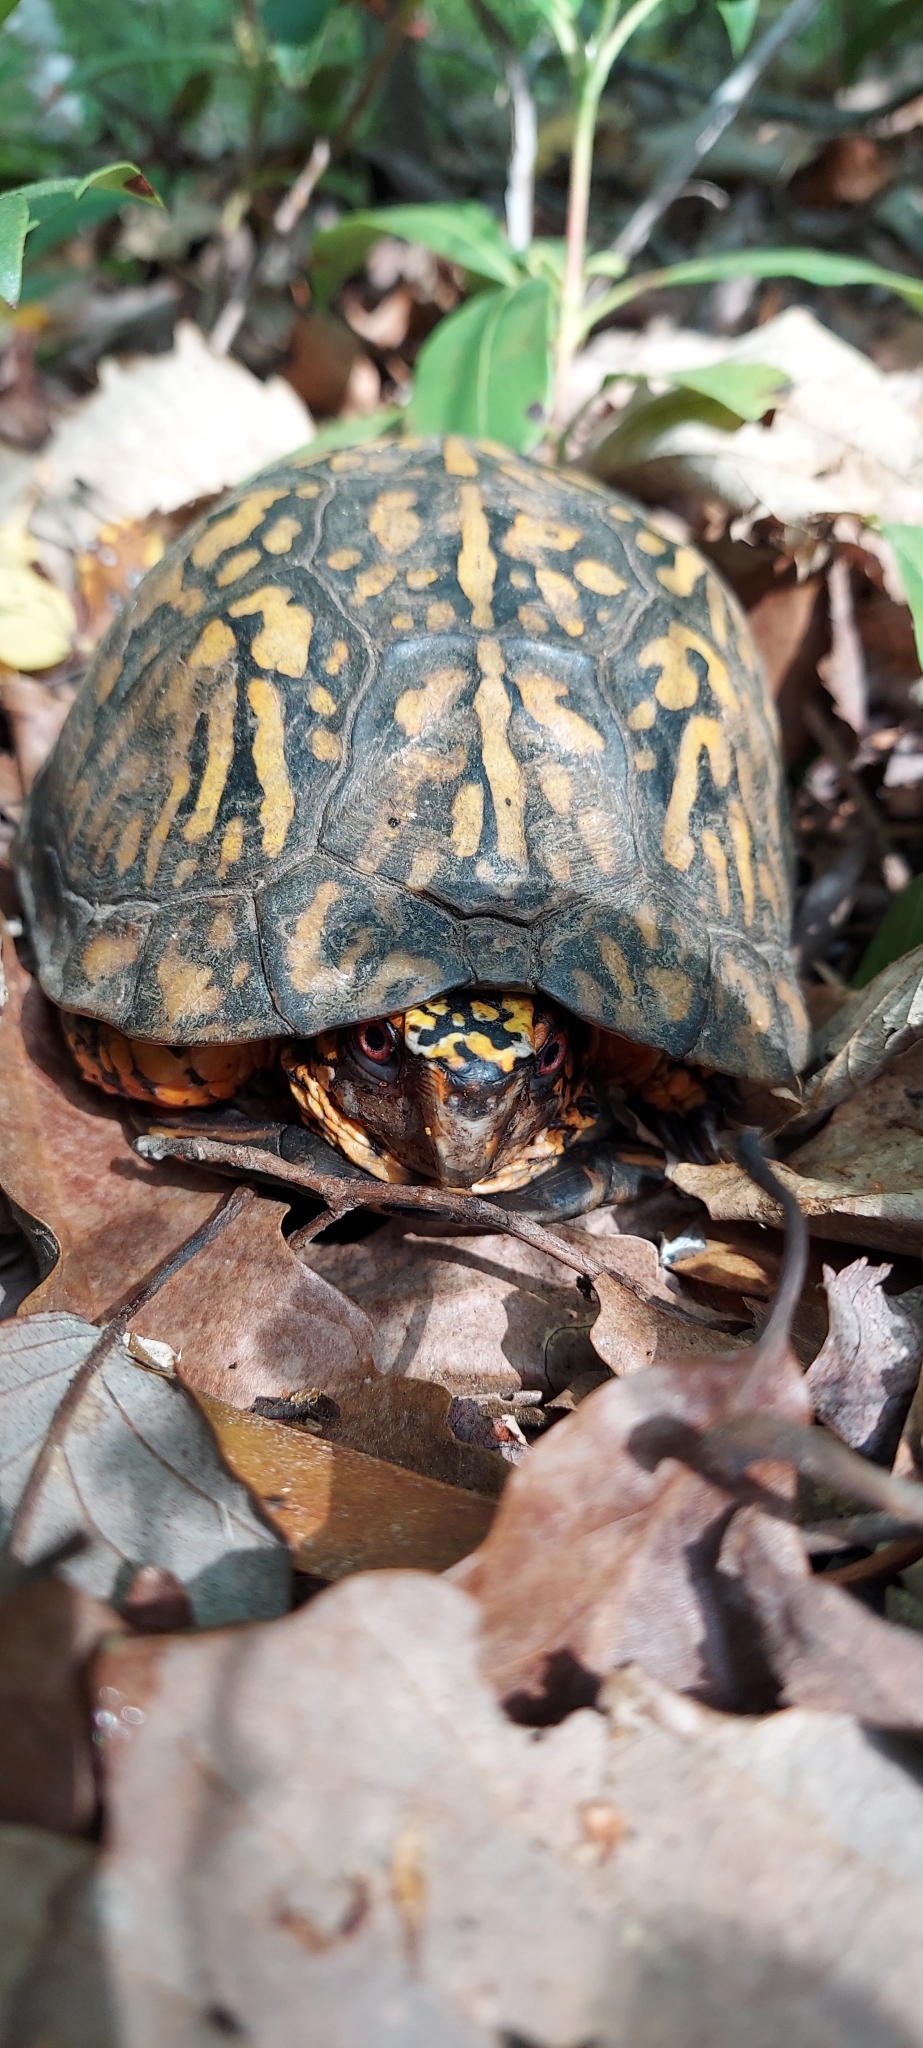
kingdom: Animalia
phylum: Chordata
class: Testudines
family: Emydidae
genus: Terrapene
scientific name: Terrapene carolina
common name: Common box turtle
